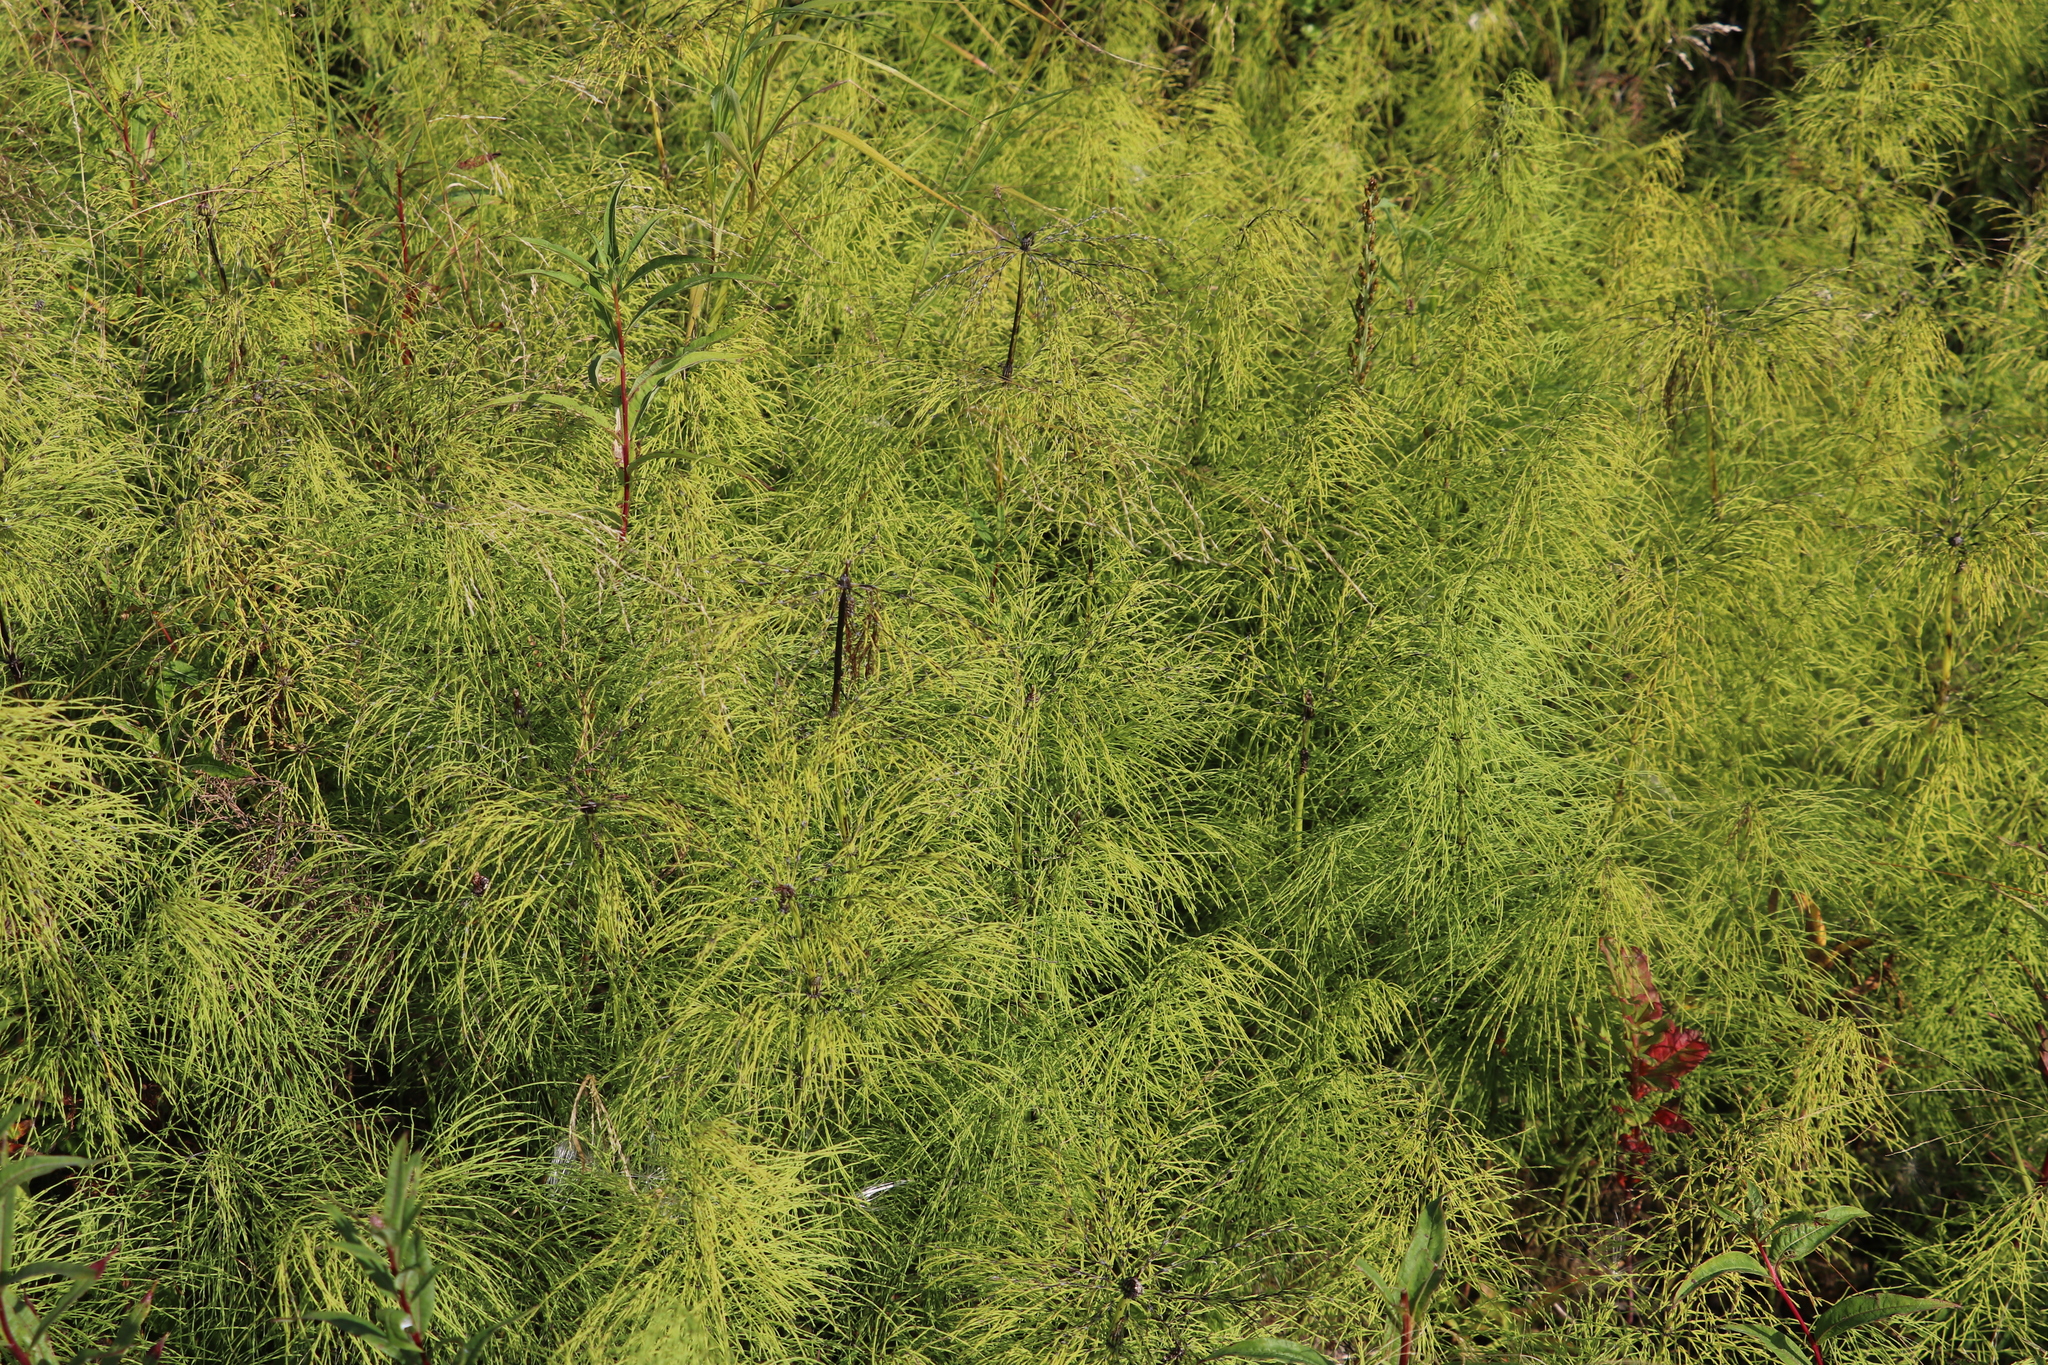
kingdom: Plantae
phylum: Tracheophyta
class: Polypodiopsida
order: Equisetales
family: Equisetaceae
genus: Equisetum
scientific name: Equisetum sylvaticum
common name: Wood horsetail
